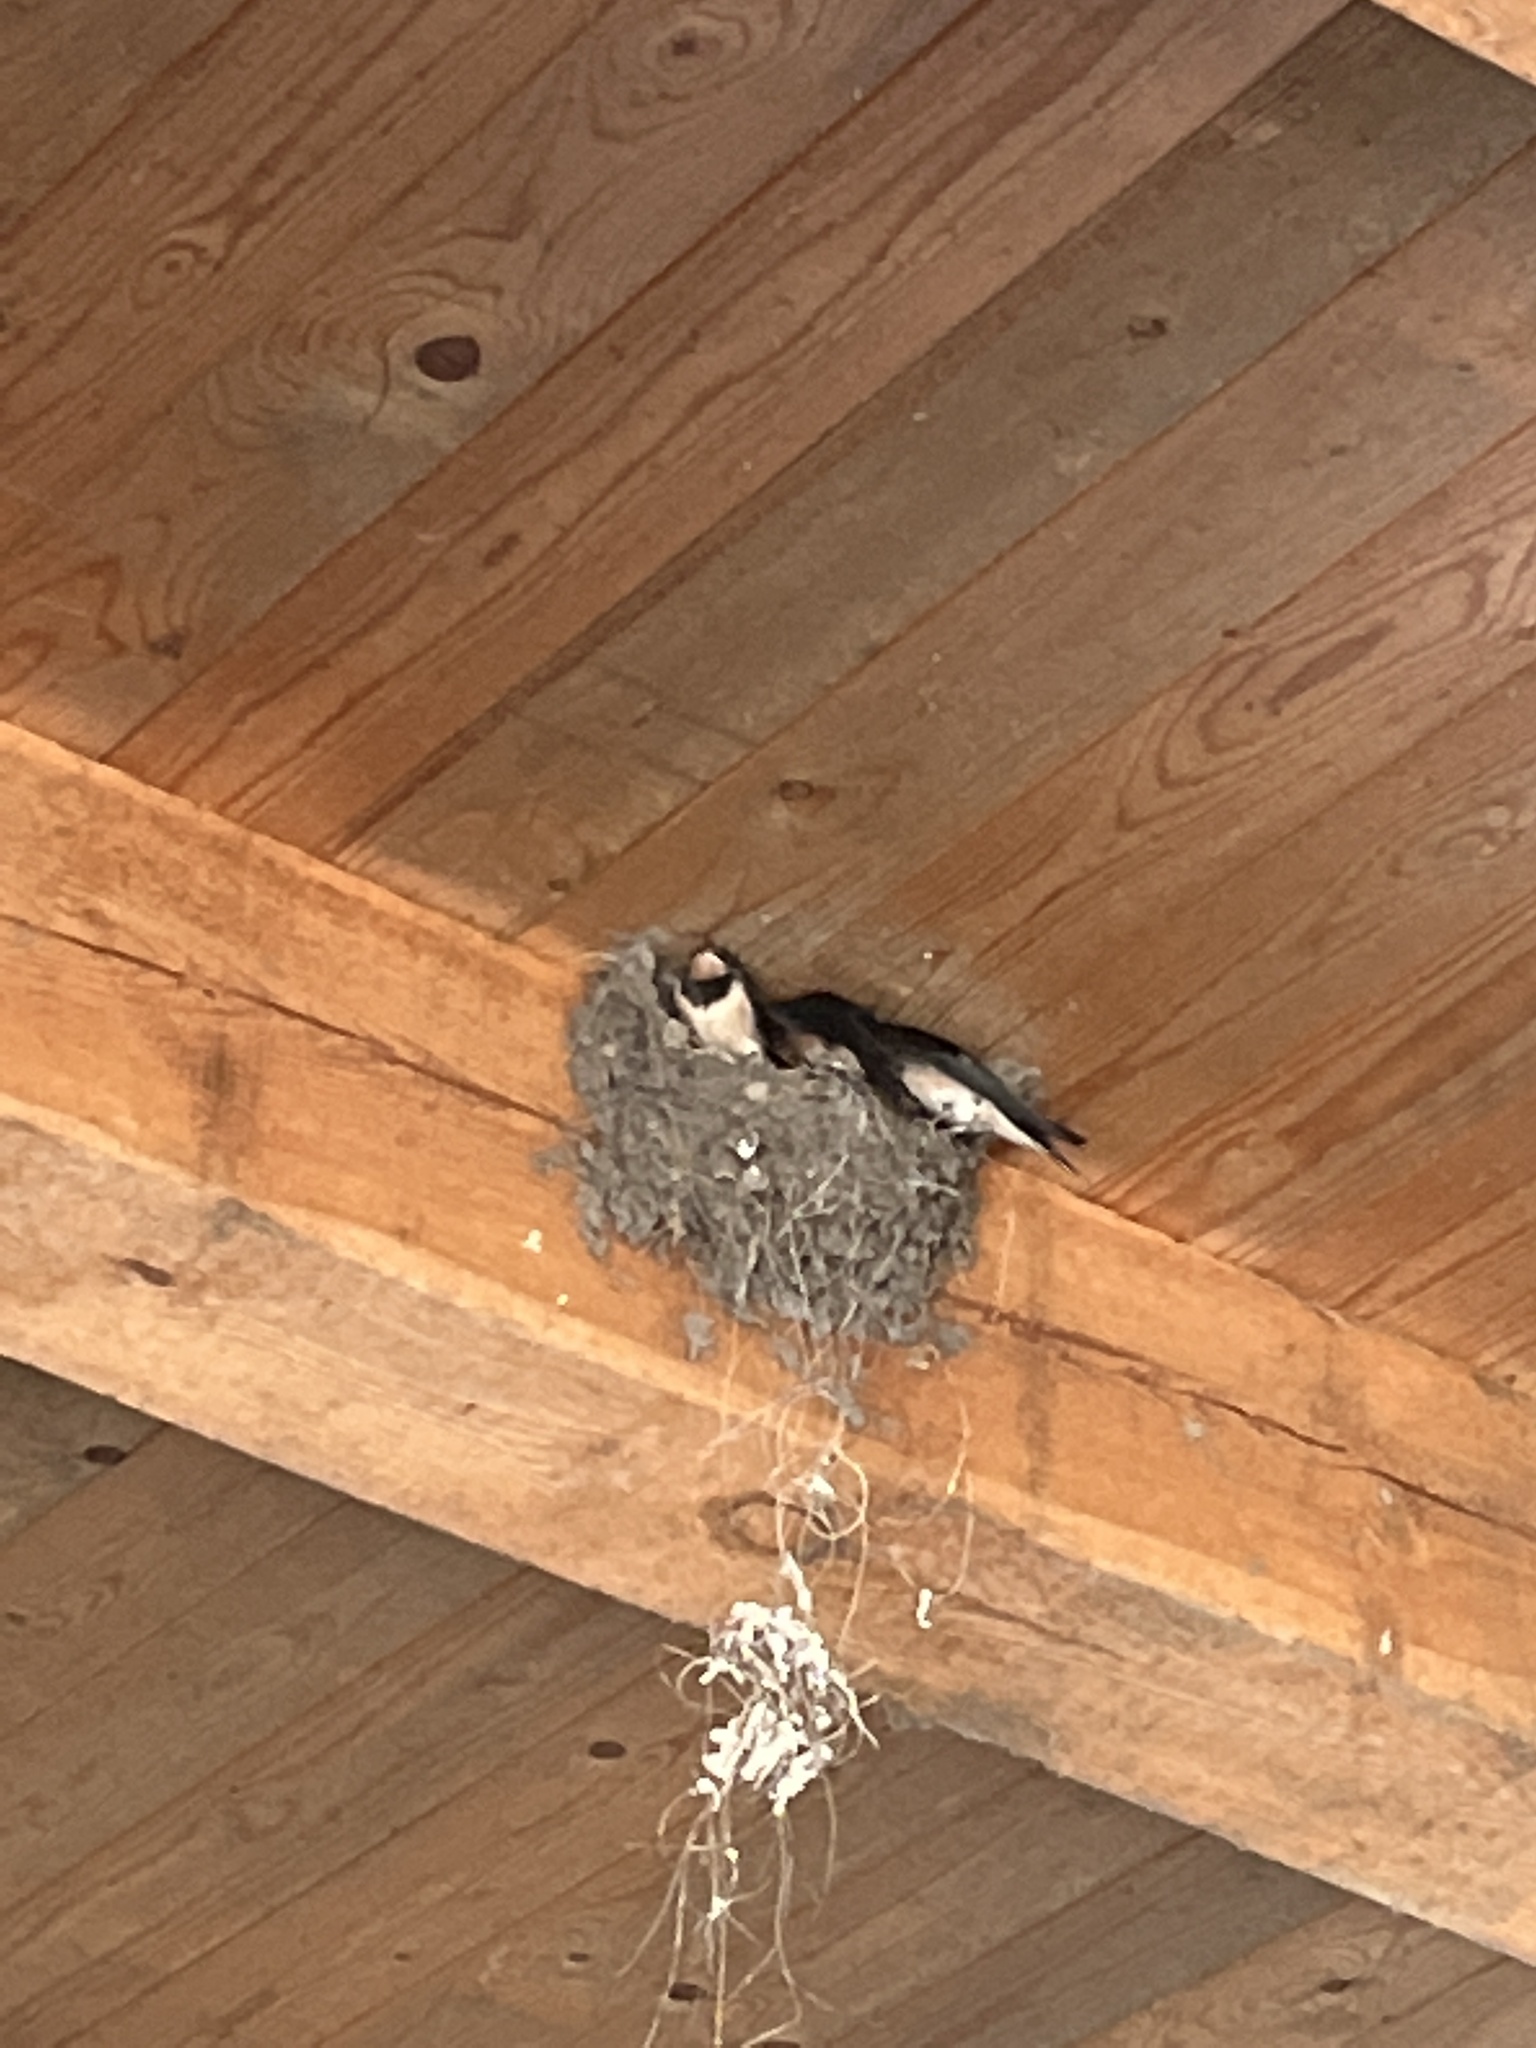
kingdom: Animalia
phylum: Chordata
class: Aves
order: Passeriformes
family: Hirundinidae
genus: Hirundo
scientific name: Hirundo rustica
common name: Barn swallow
